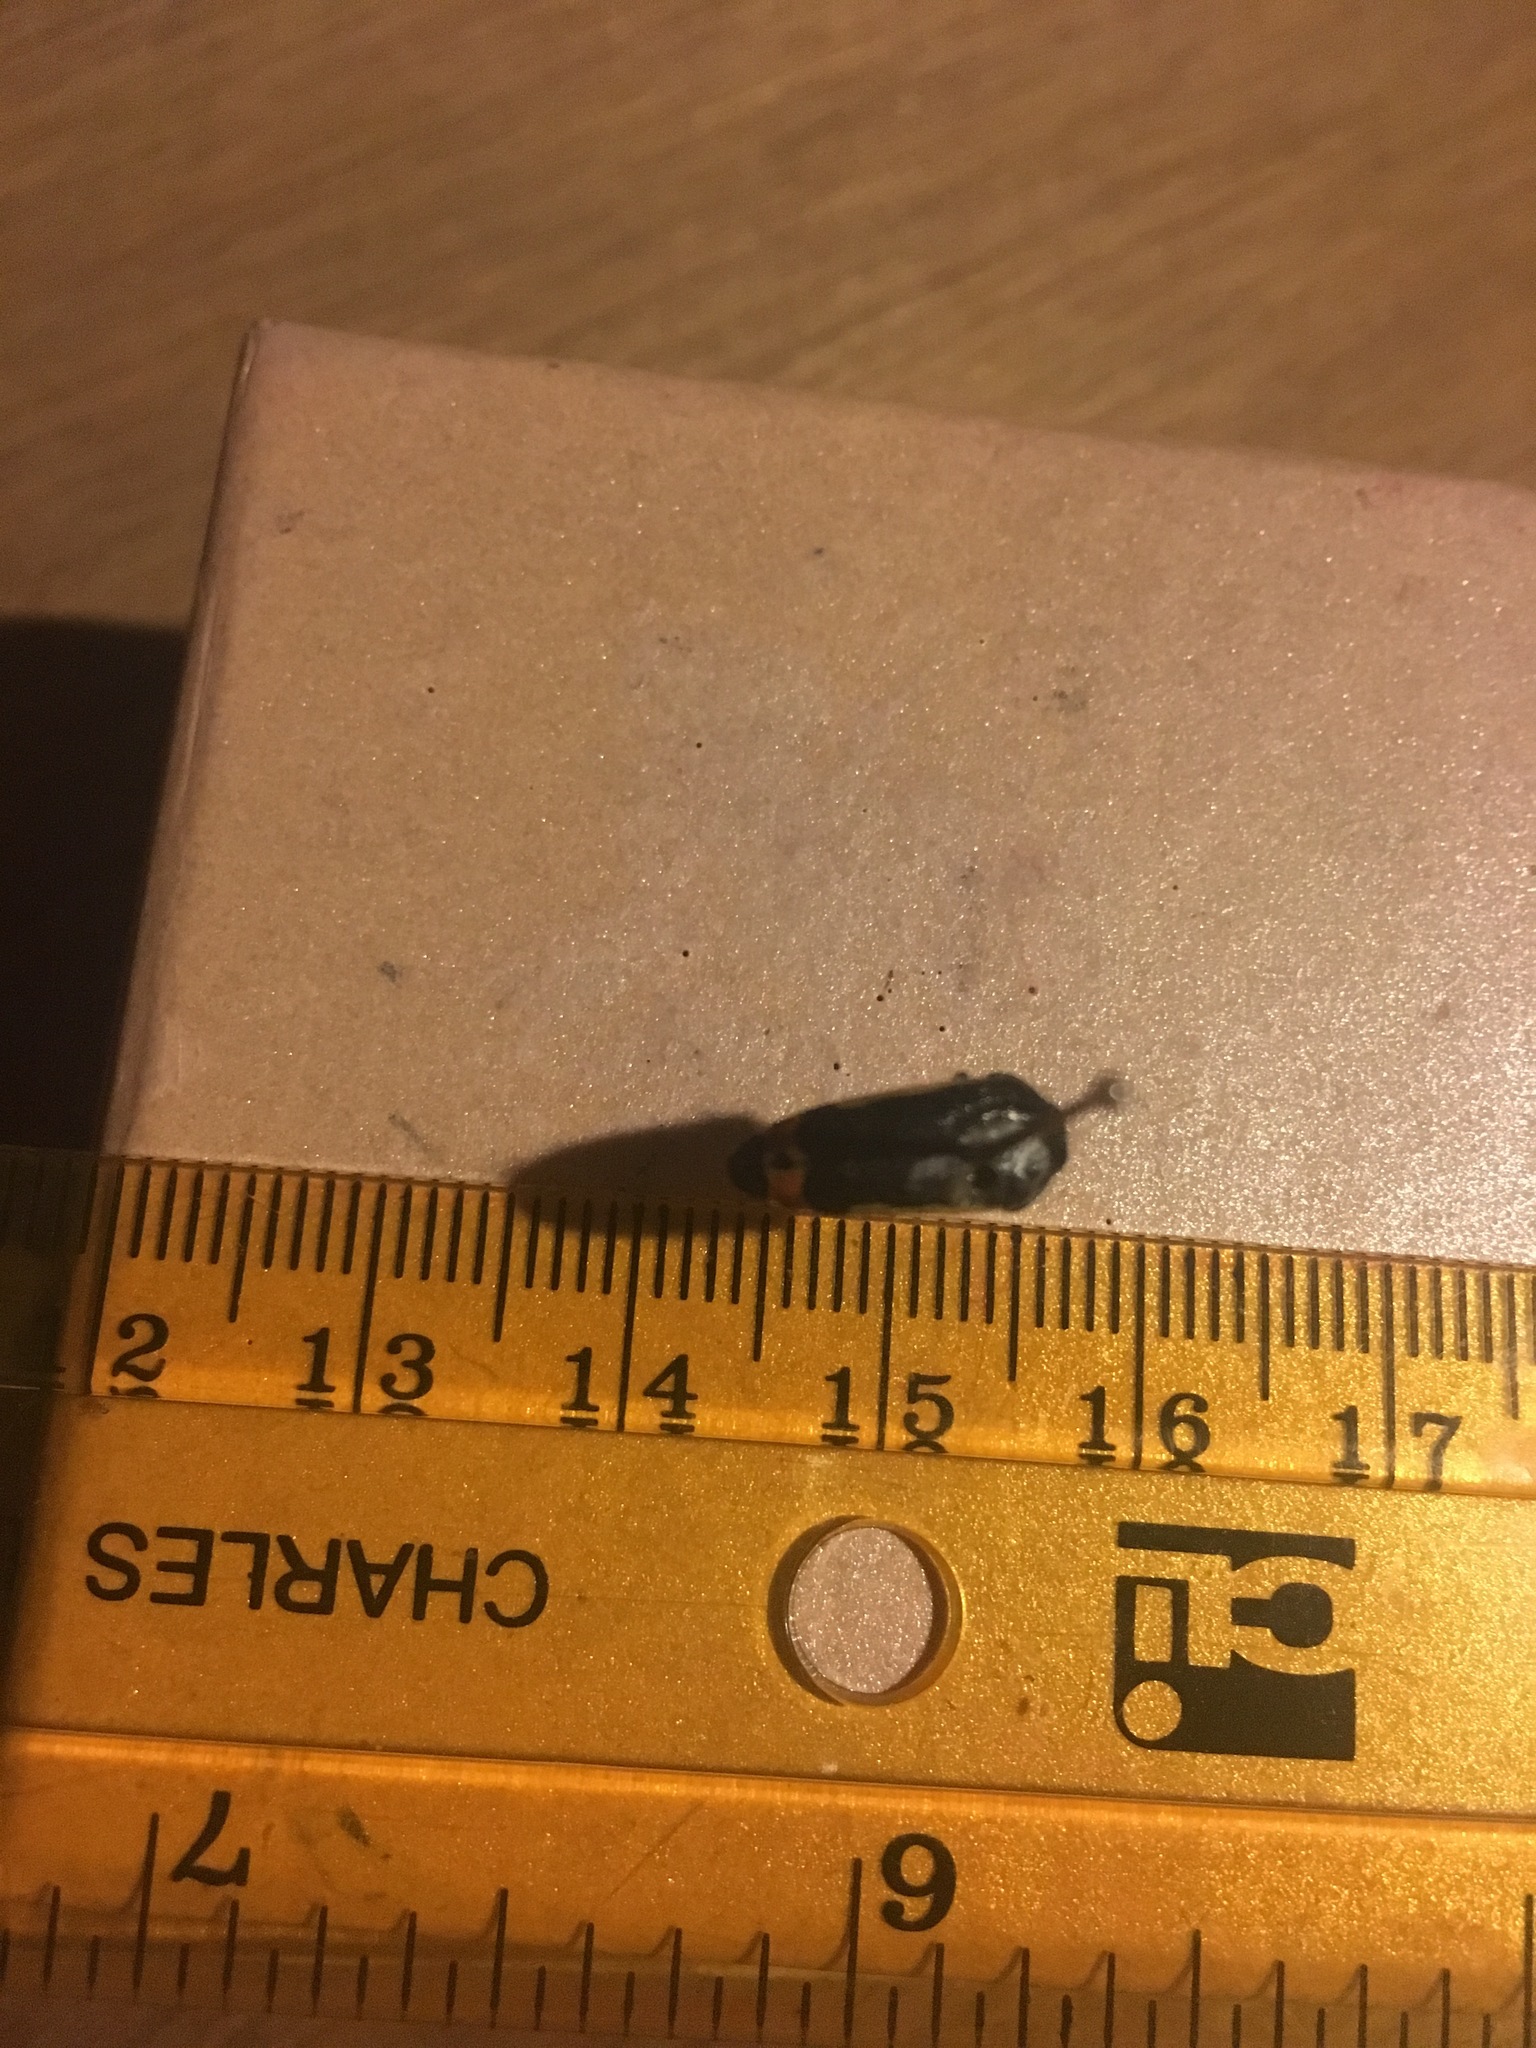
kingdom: Animalia
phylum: Arthropoda
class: Insecta
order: Coleoptera
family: Buprestidae
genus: Acmaeodera
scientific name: Acmaeodera flavomarginata
